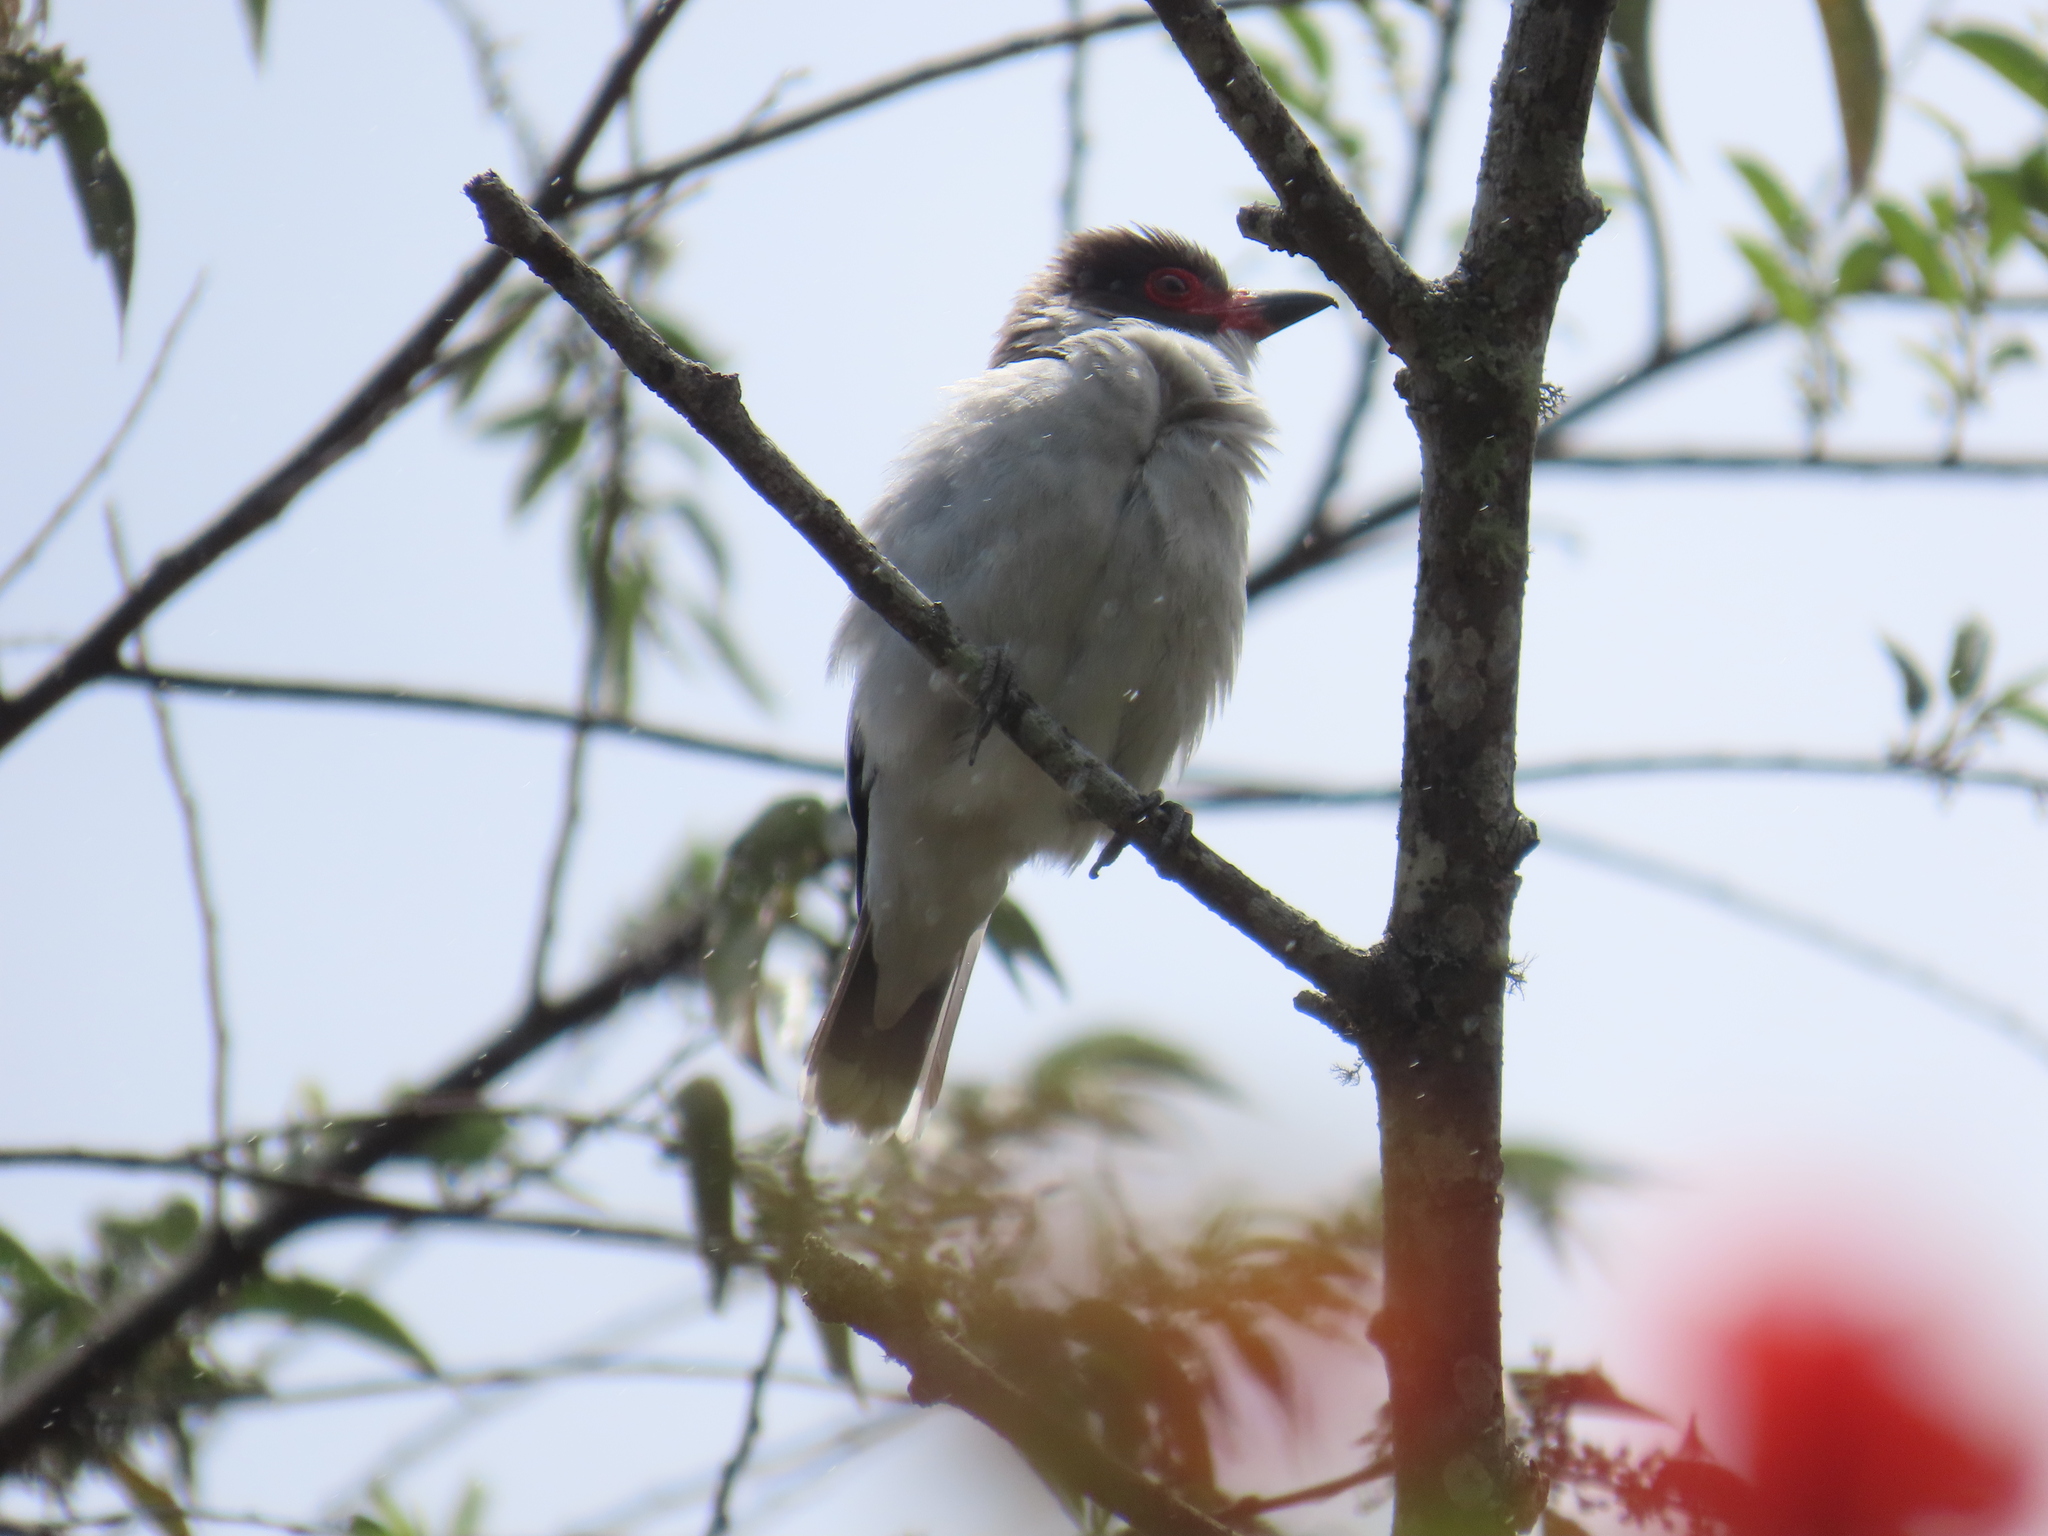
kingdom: Animalia
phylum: Chordata
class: Aves
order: Passeriformes
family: Cotingidae
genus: Tityra
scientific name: Tityra semifasciata
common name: Masked tityra
